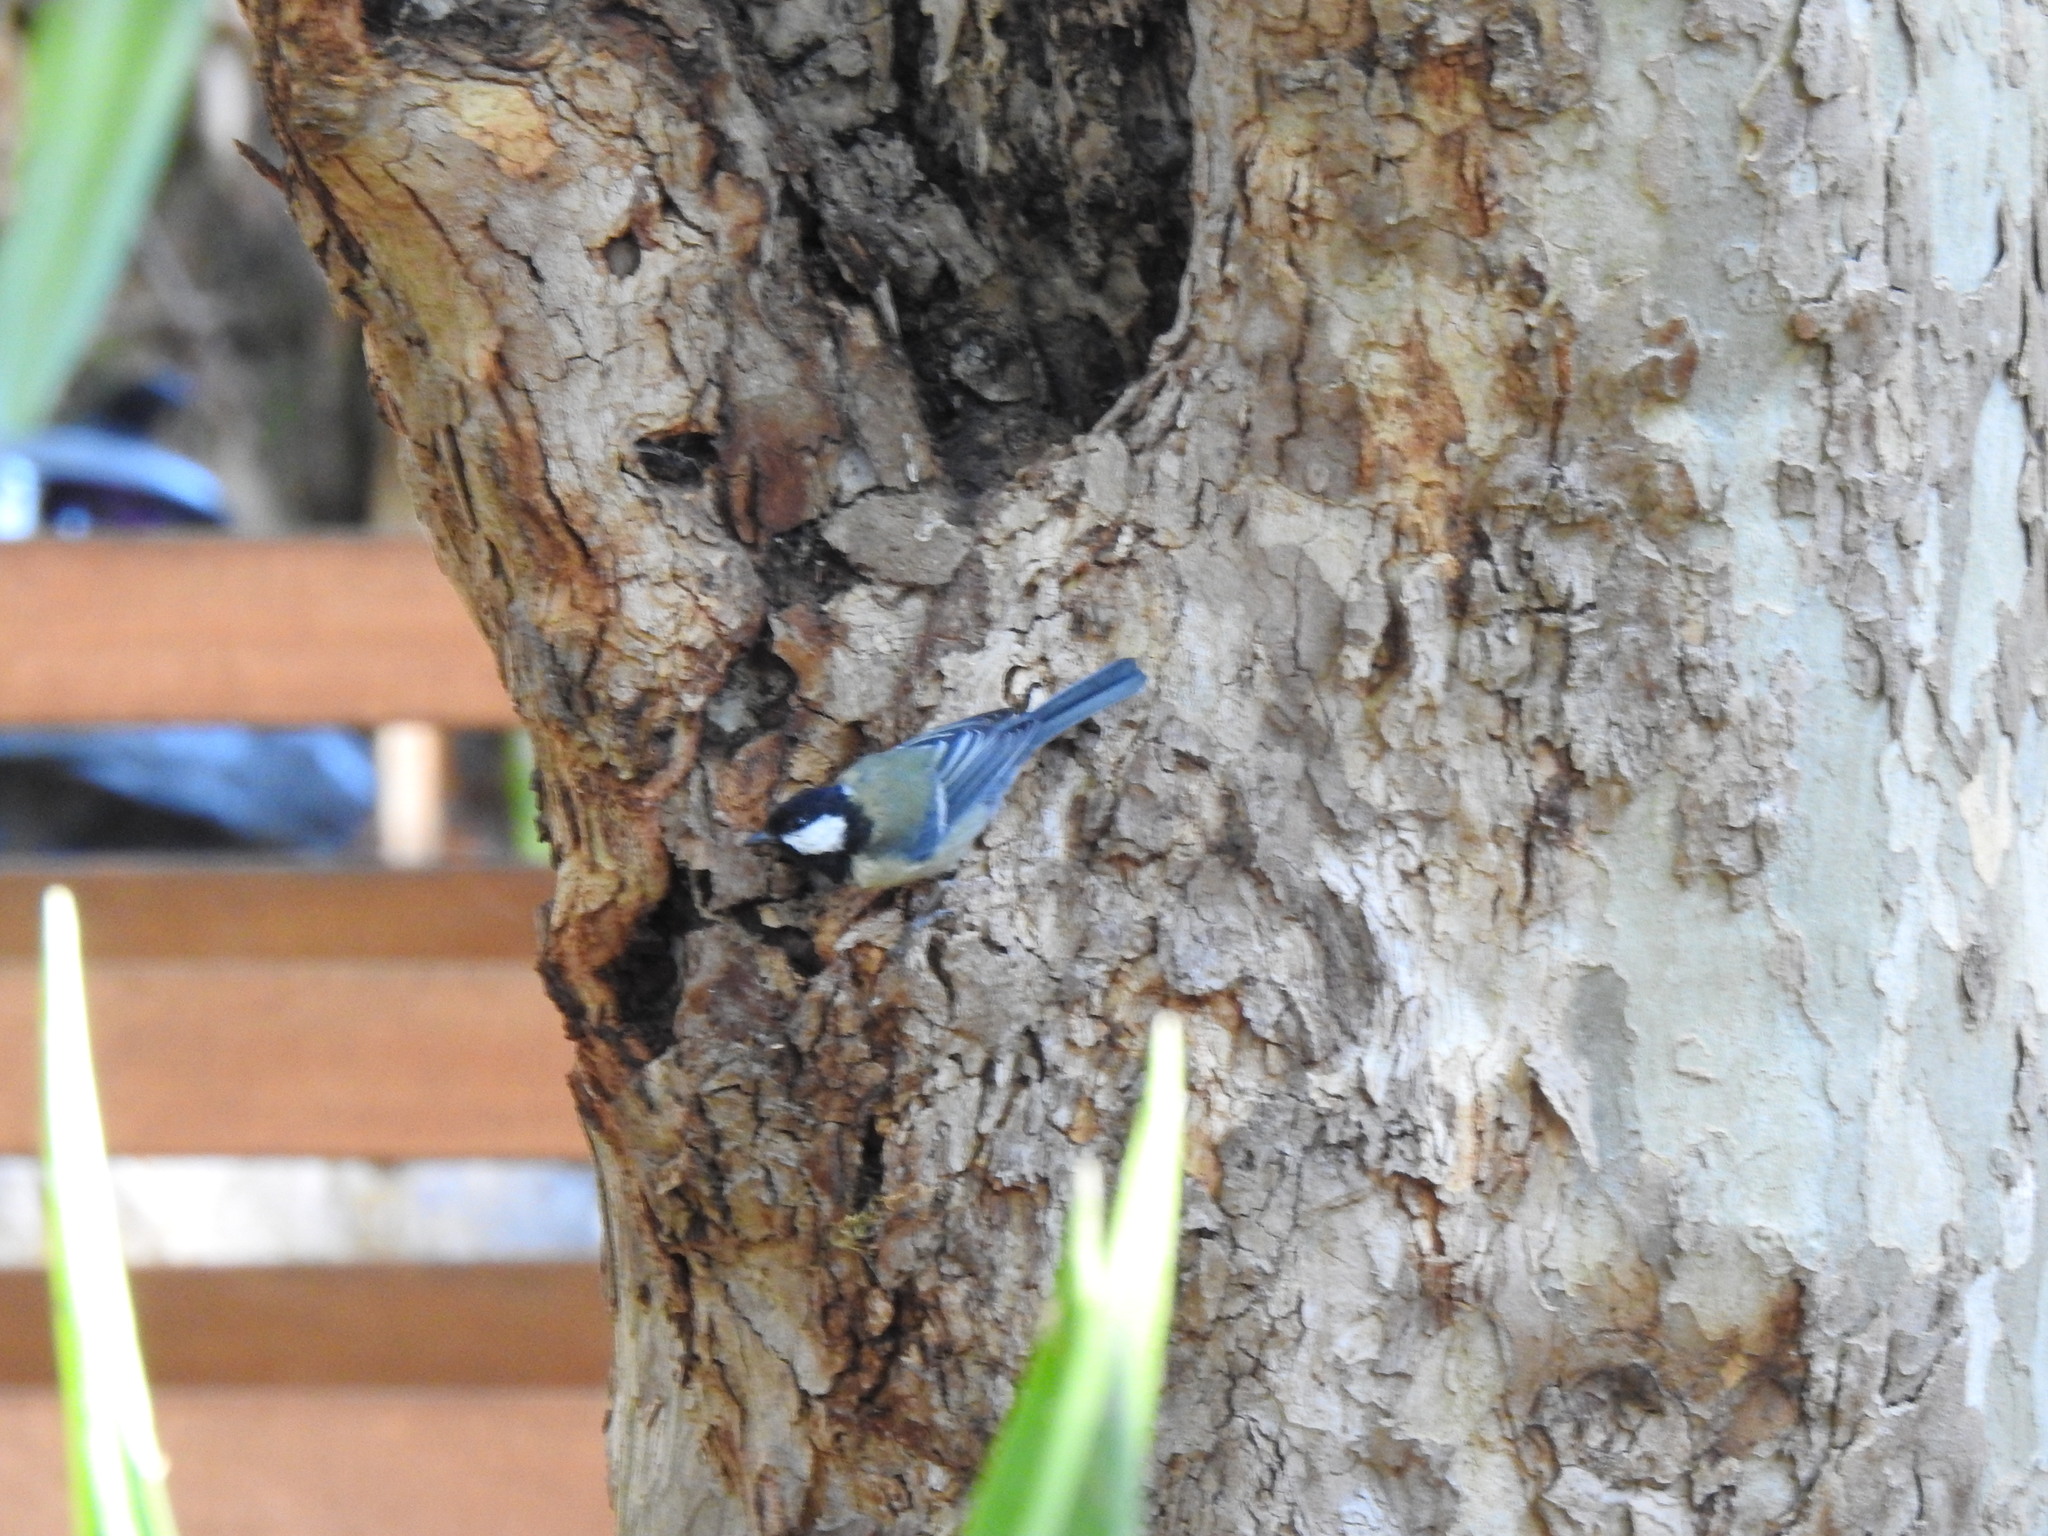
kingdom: Animalia
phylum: Chordata
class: Aves
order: Passeriformes
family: Paridae
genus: Parus
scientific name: Parus major
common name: Great tit
